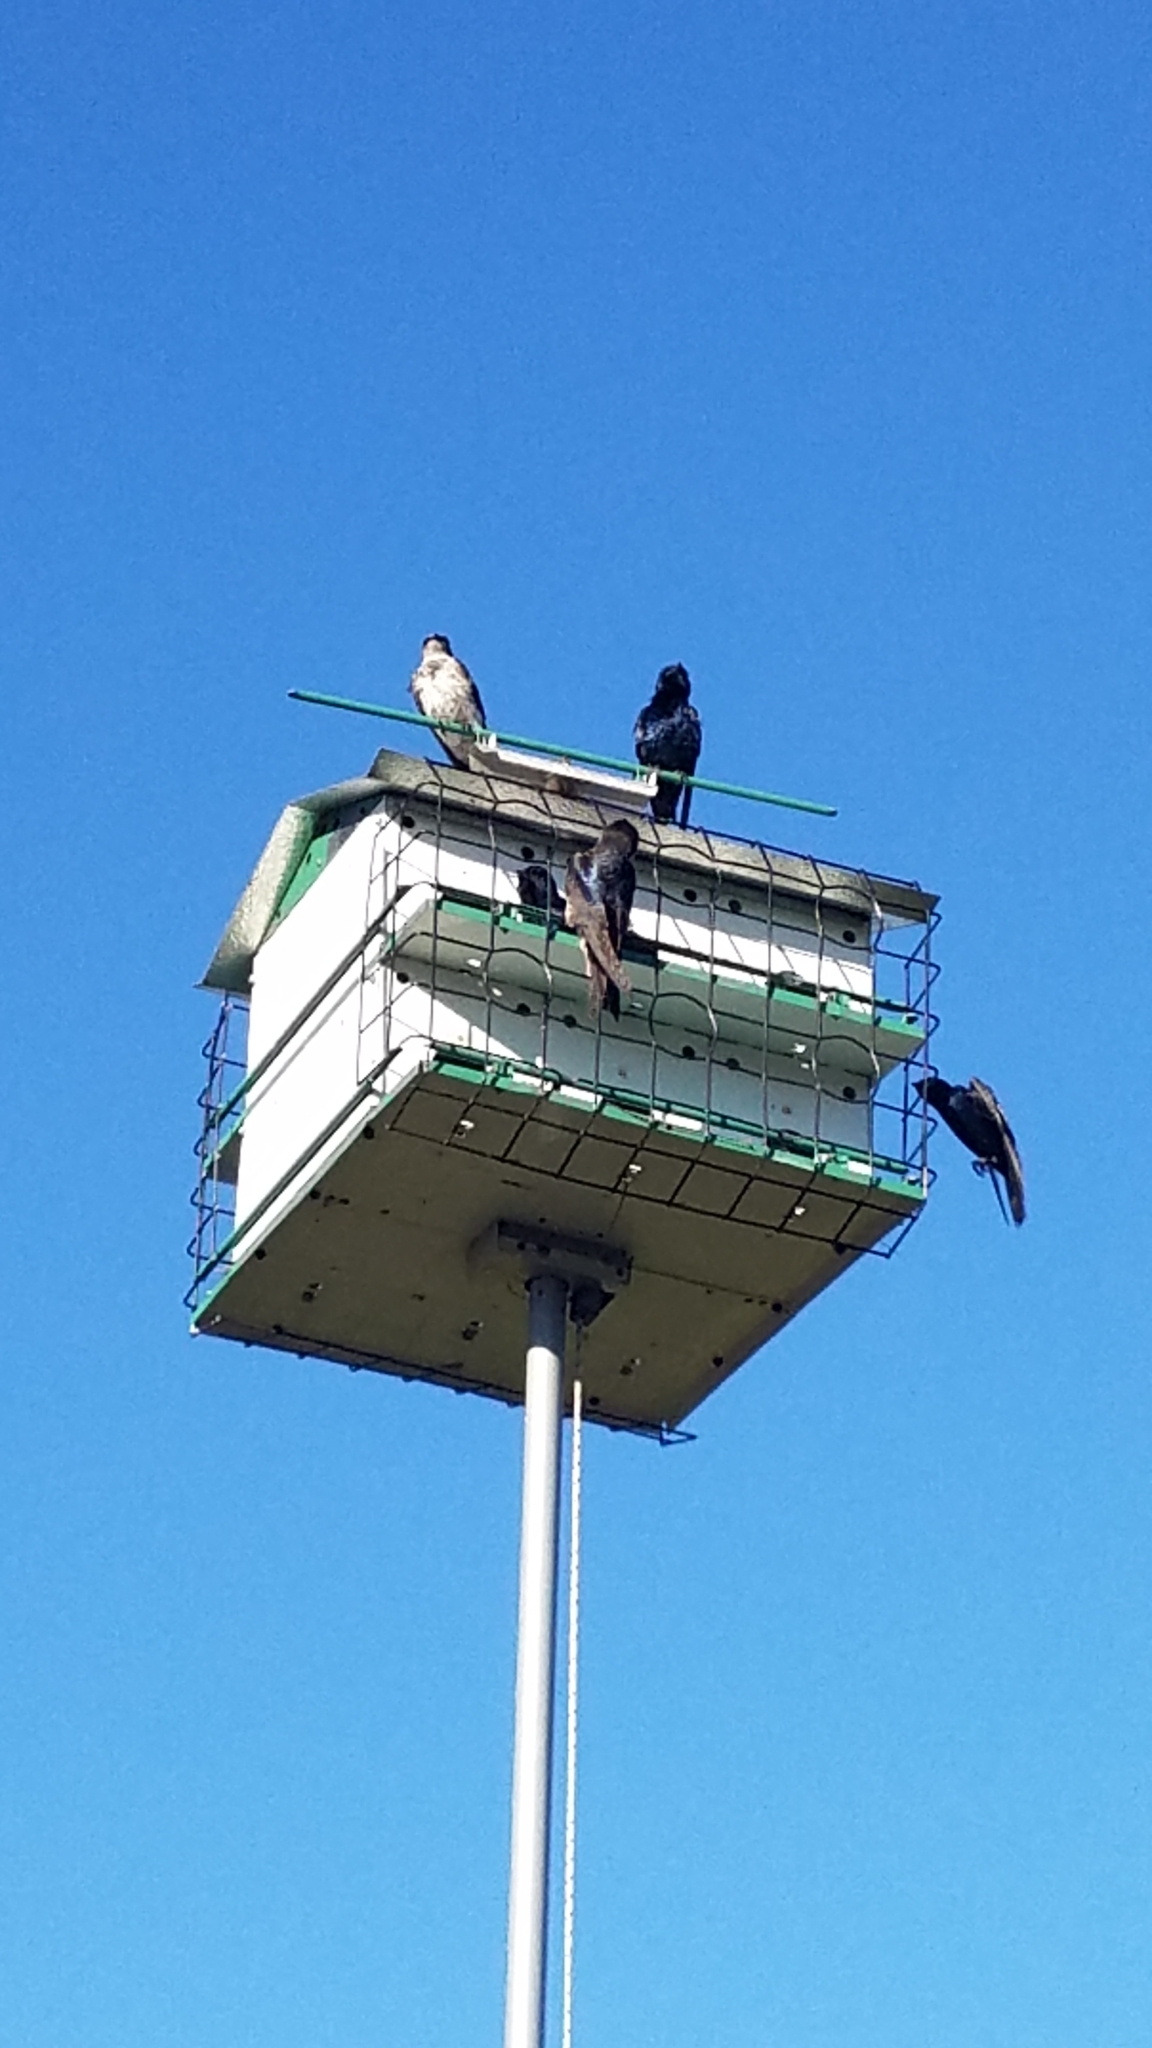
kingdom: Animalia
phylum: Chordata
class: Aves
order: Passeriformes
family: Hirundinidae
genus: Progne
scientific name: Progne subis
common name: Purple martin
